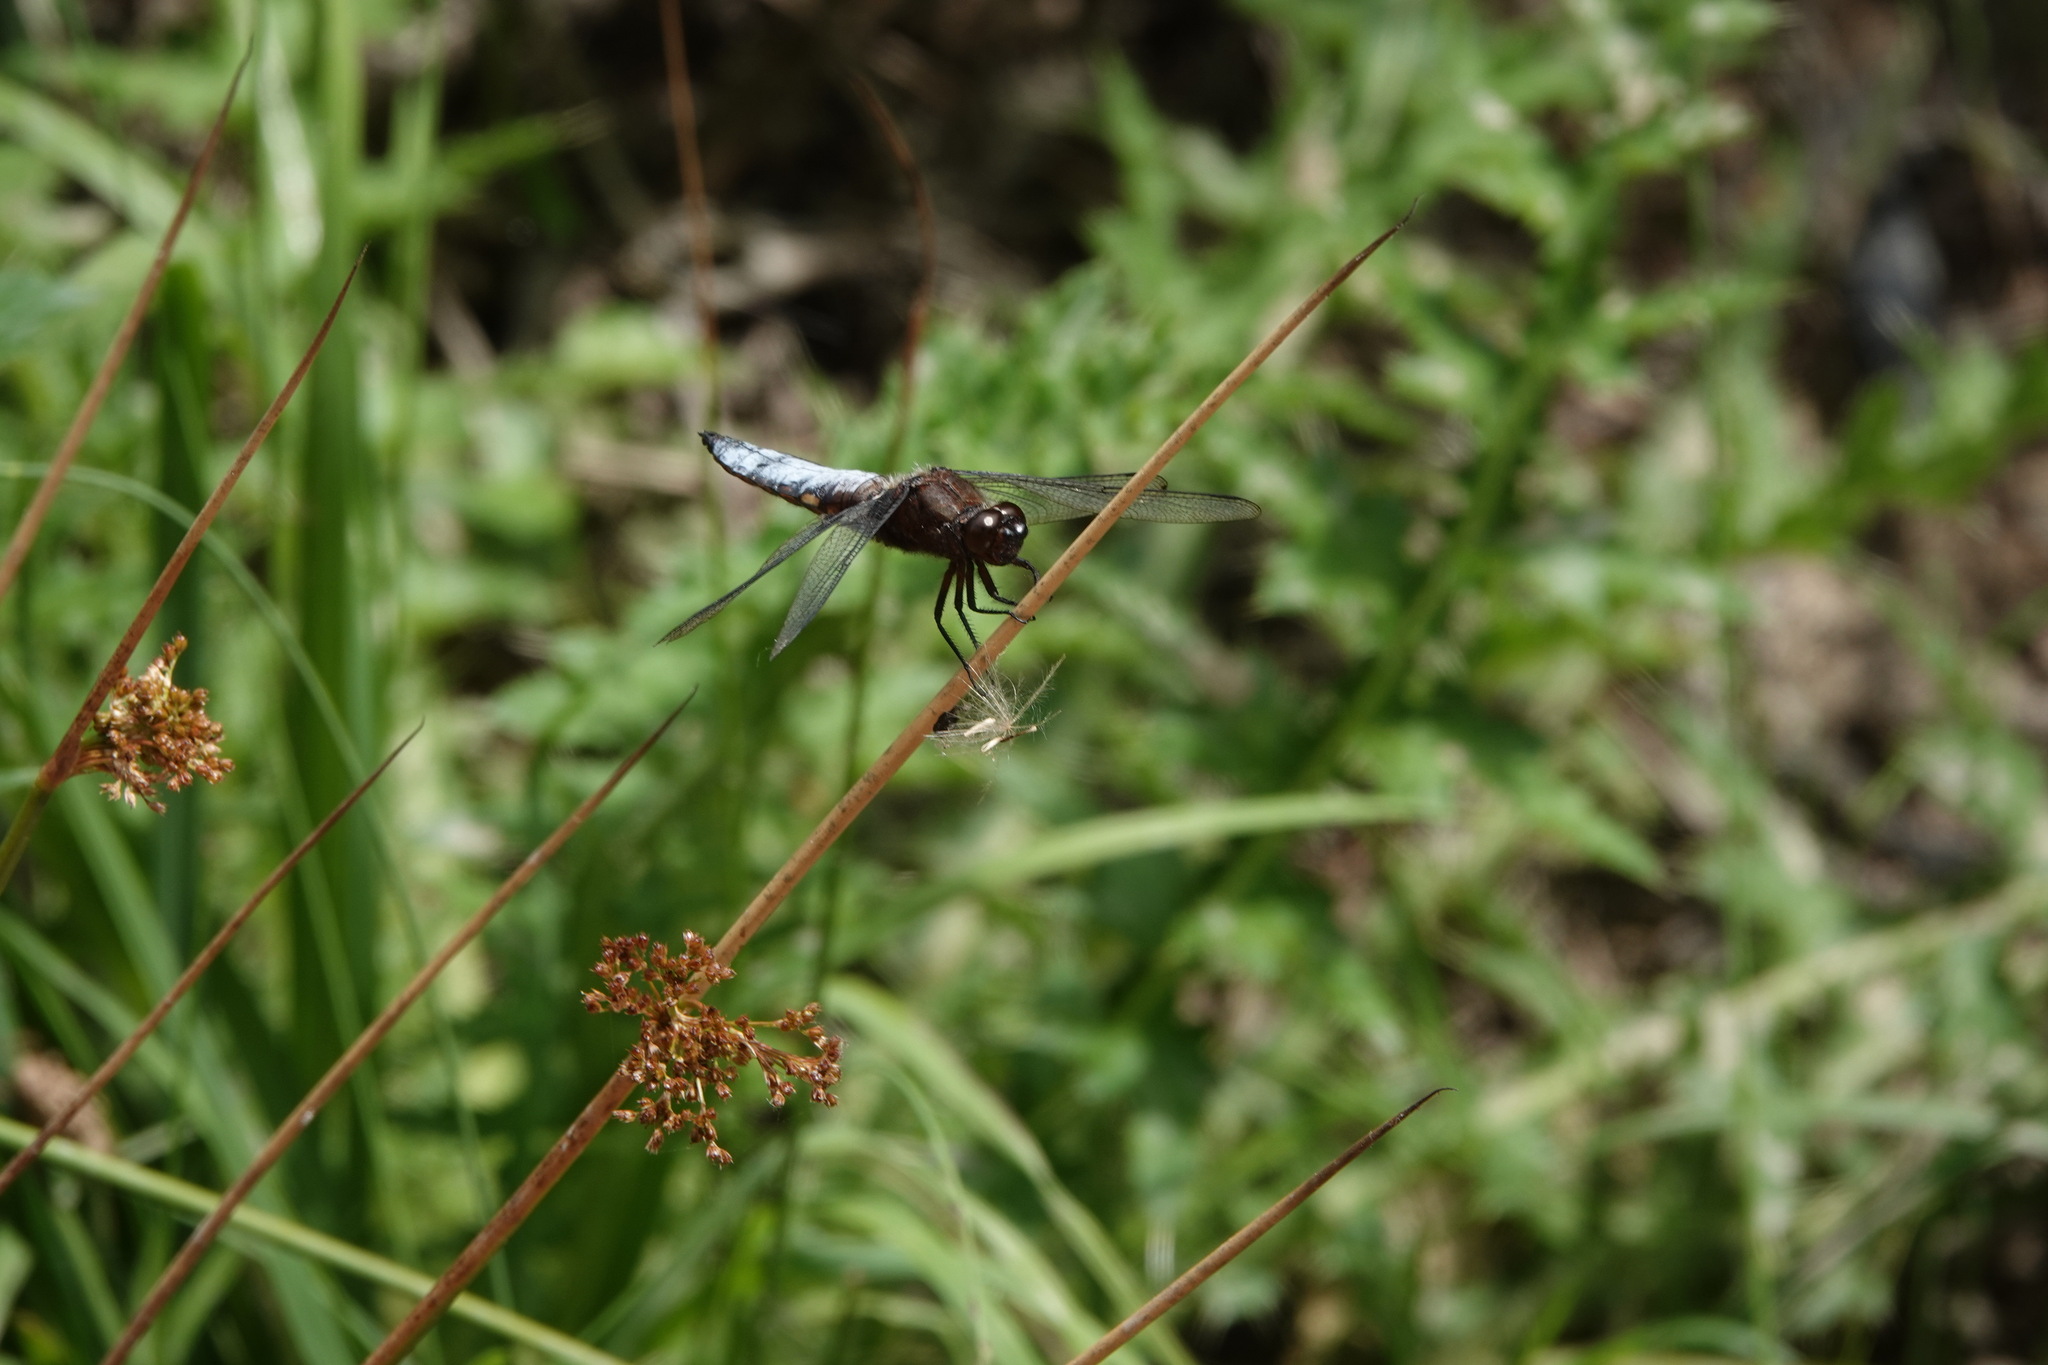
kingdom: Animalia
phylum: Arthropoda
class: Insecta
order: Odonata
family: Libellulidae
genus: Libellula
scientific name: Libellula depressa
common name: Broad-bodied chaser
